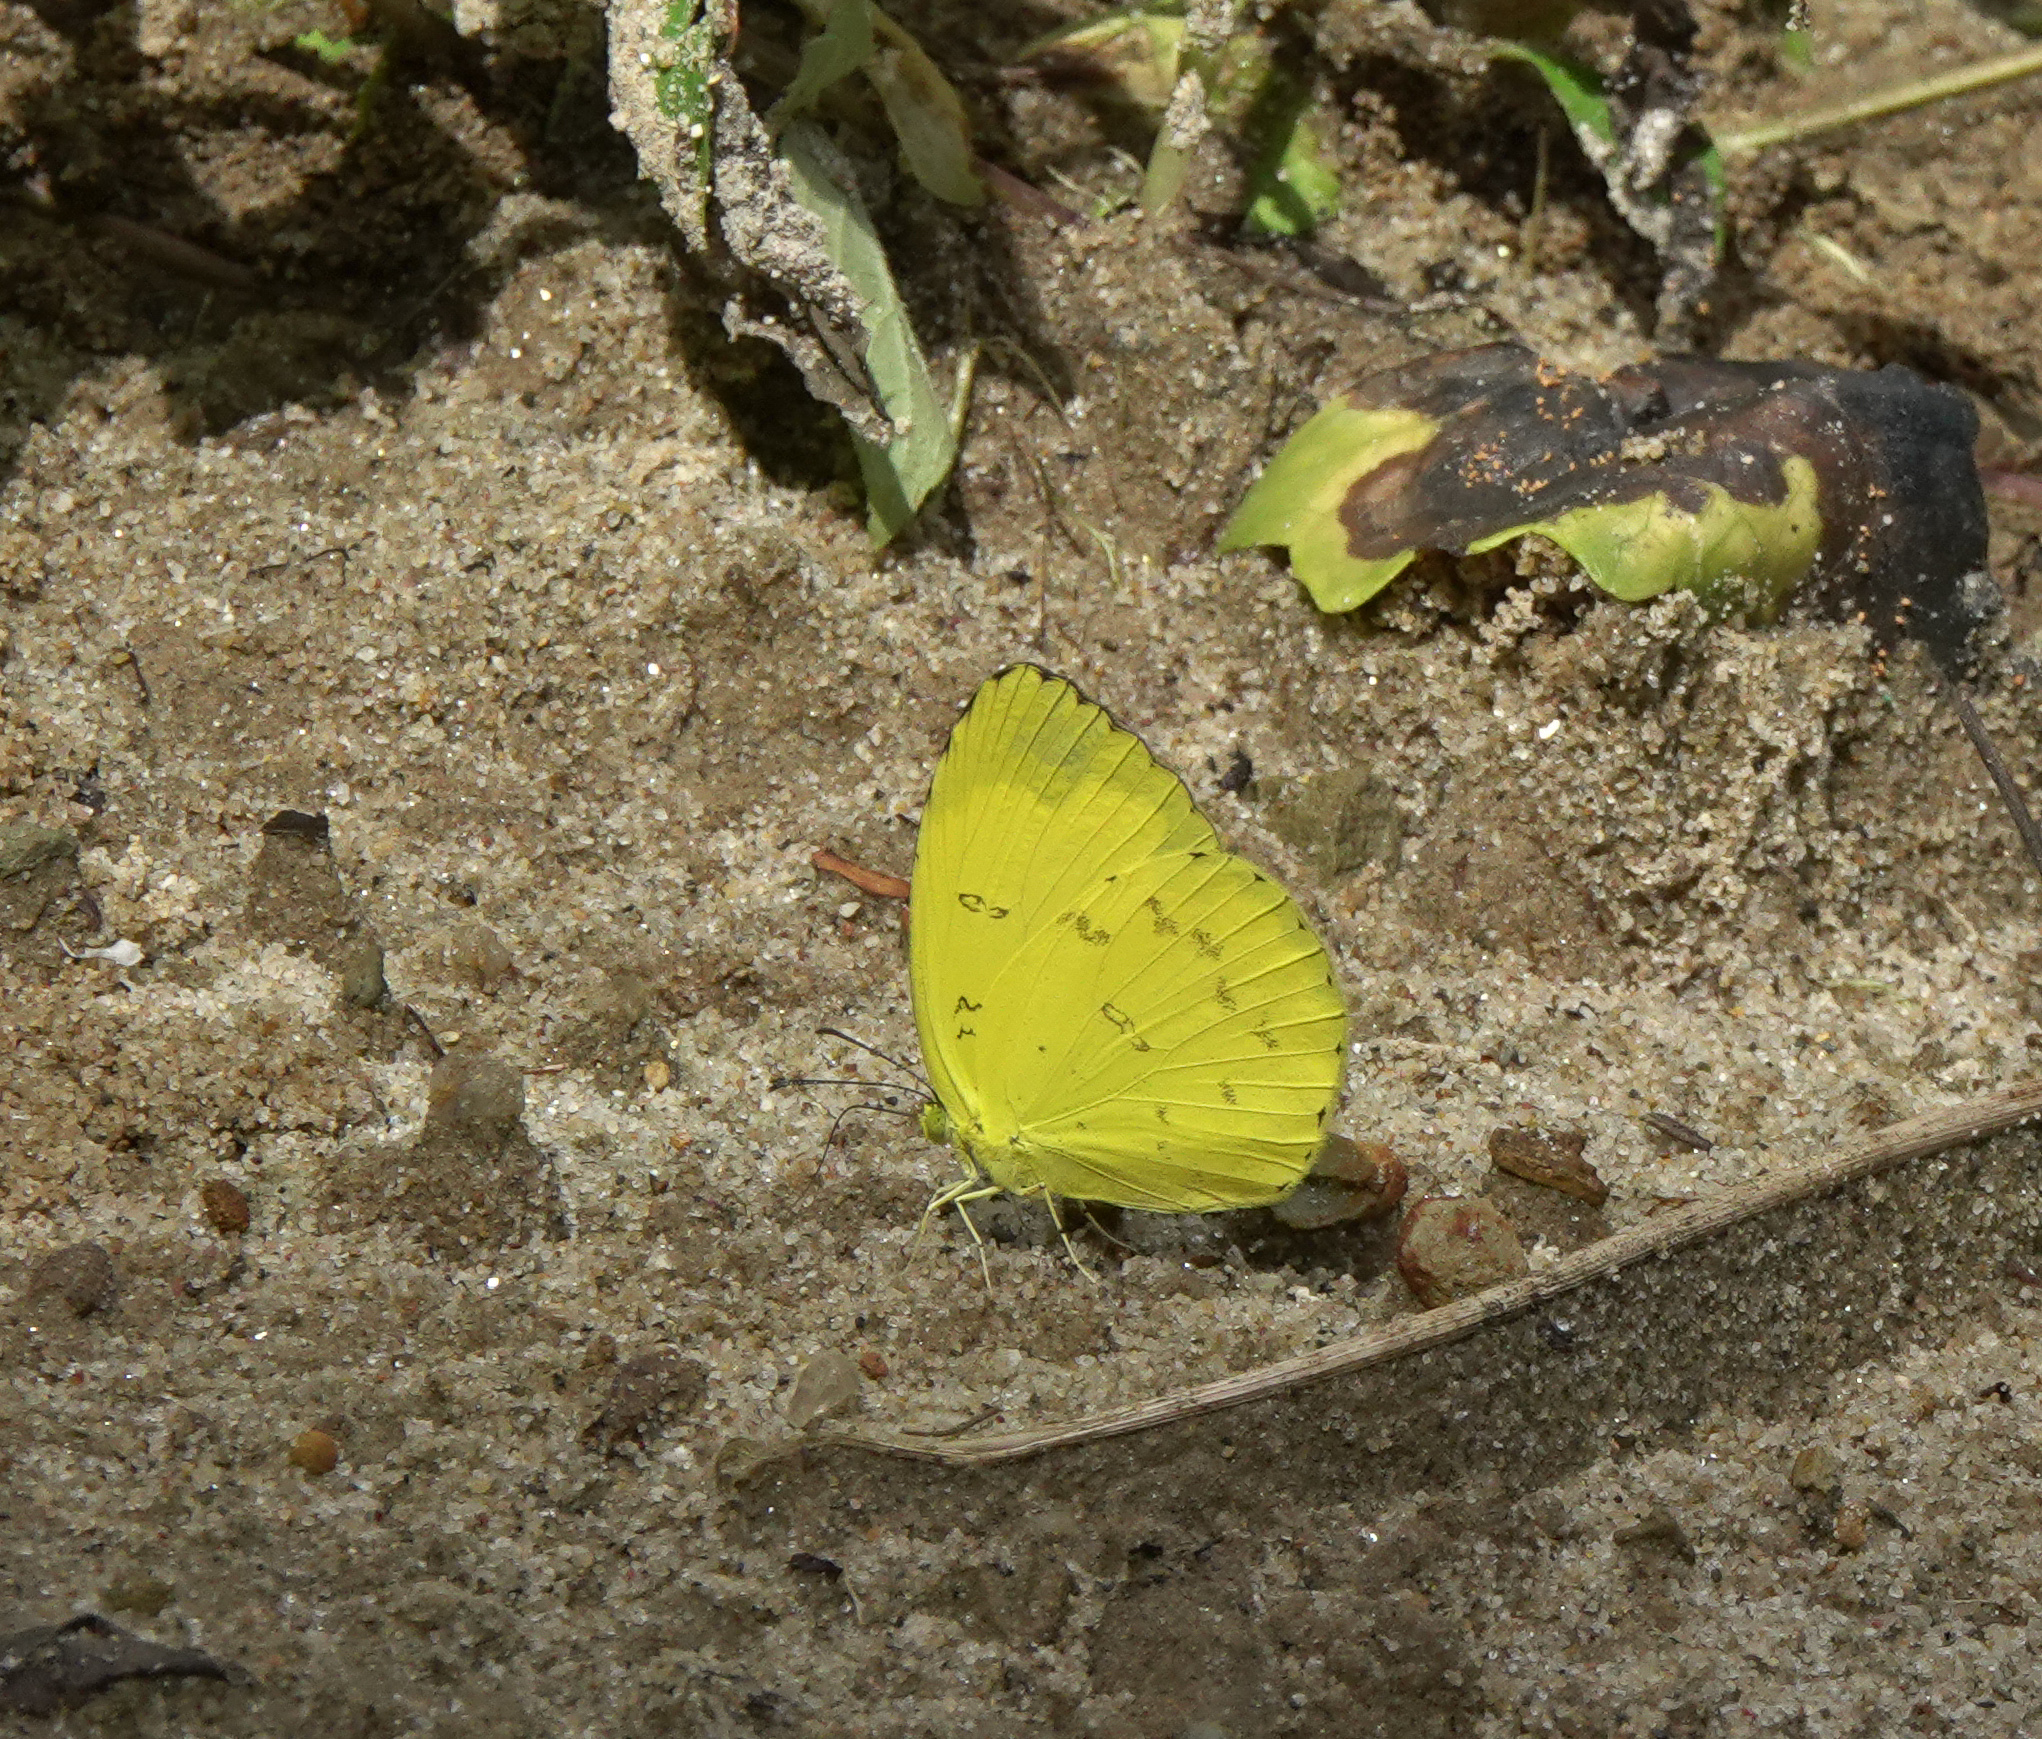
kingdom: Animalia
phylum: Arthropoda
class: Insecta
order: Lepidoptera
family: Pieridae
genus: Eurema
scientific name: Eurema blanda
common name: Three-spot grass yellow
